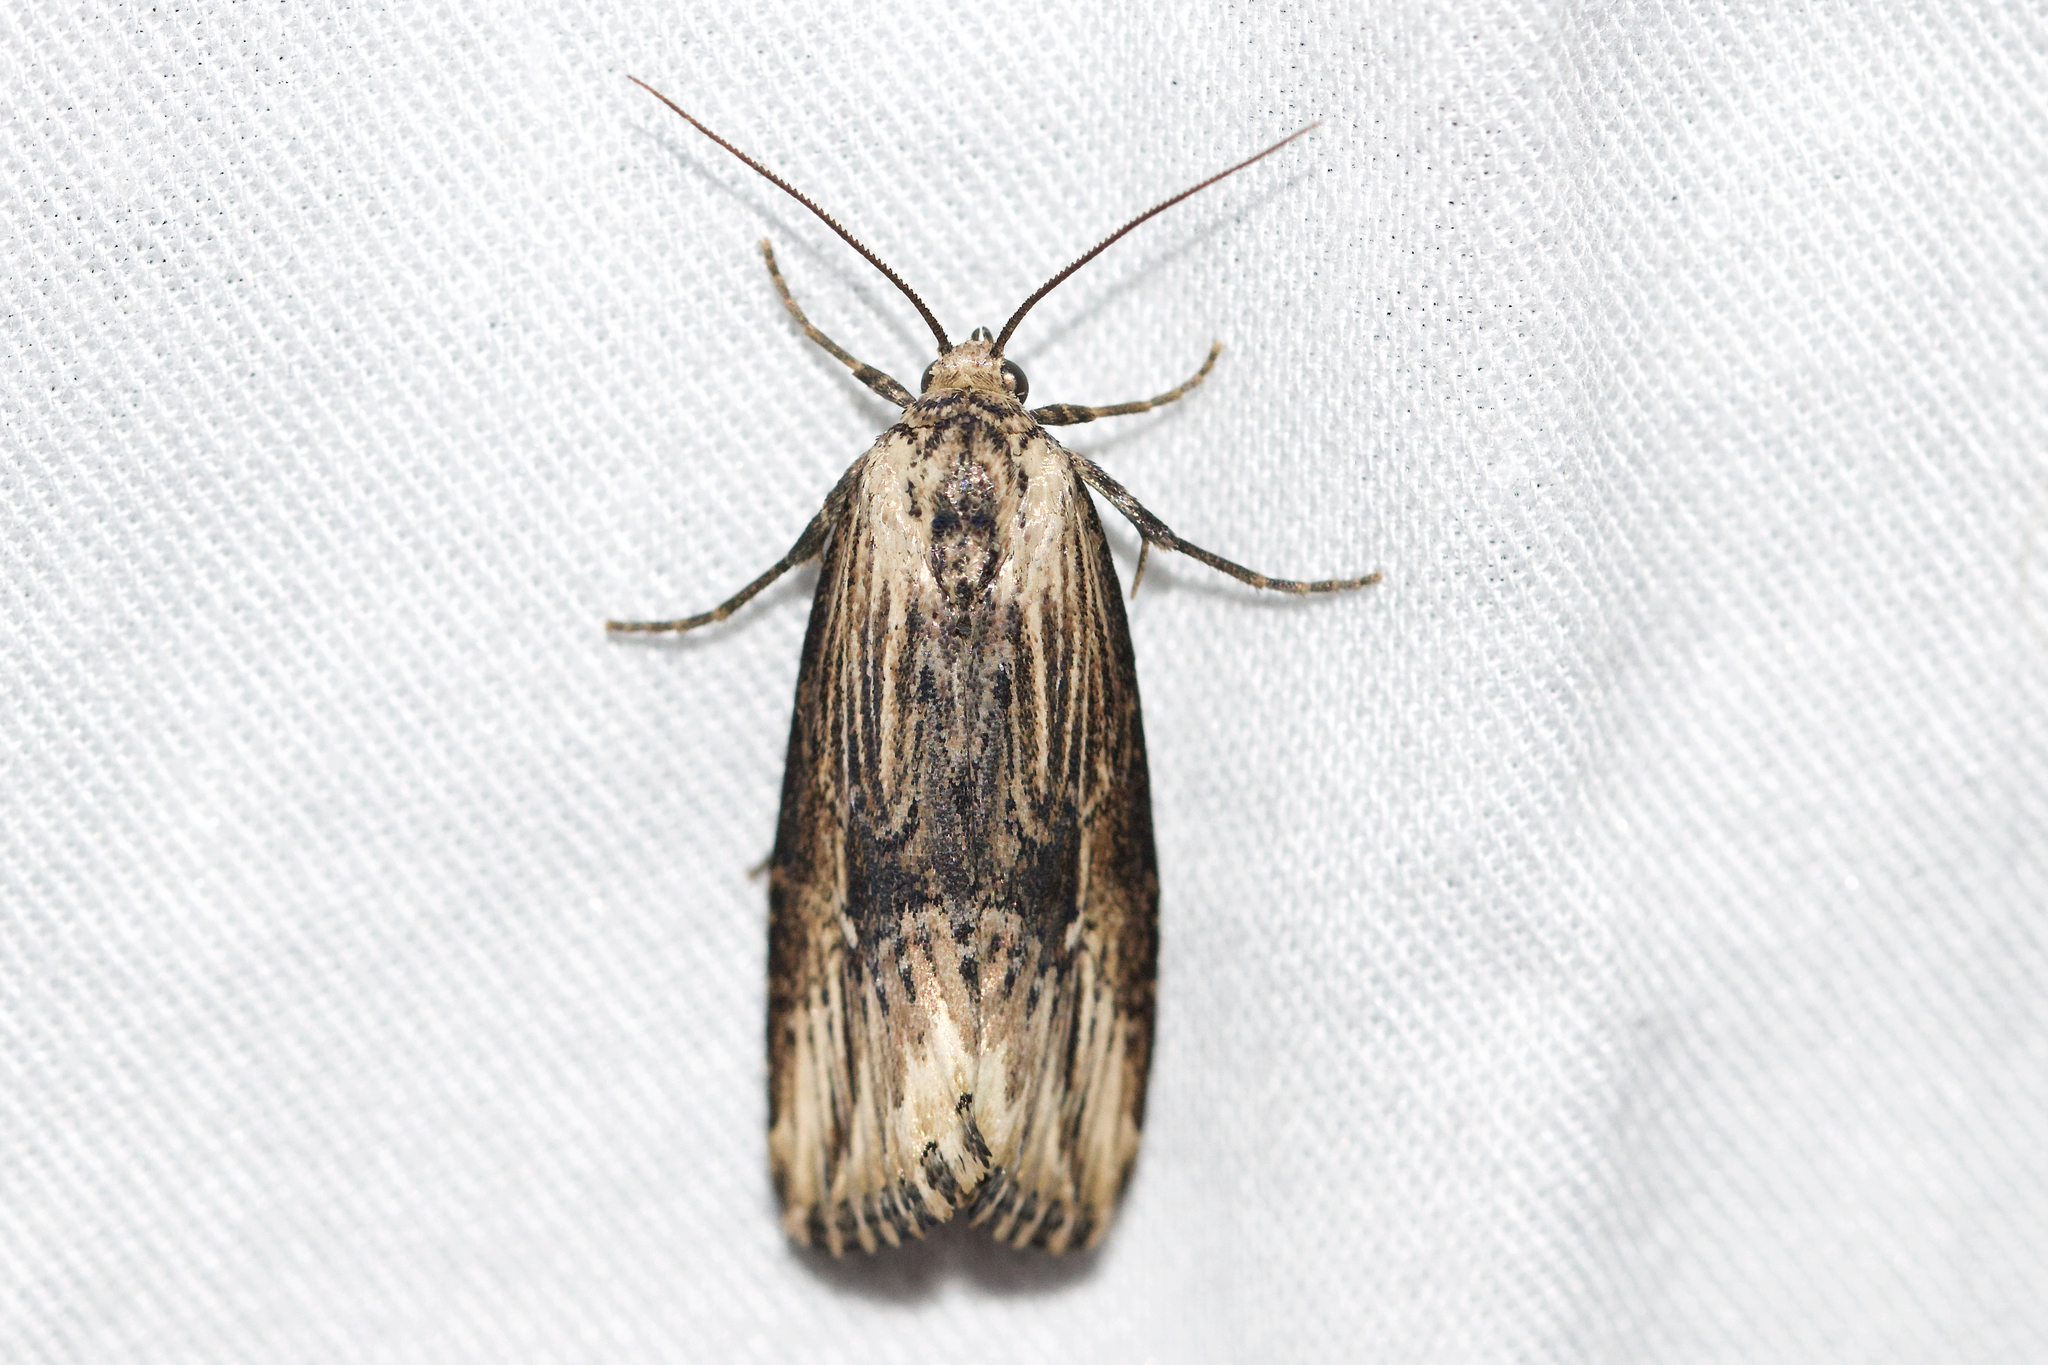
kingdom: Animalia
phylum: Arthropoda
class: Insecta
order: Lepidoptera
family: Noctuidae
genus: Crambodes
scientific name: Crambodes talidiformis
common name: Verbena moth
